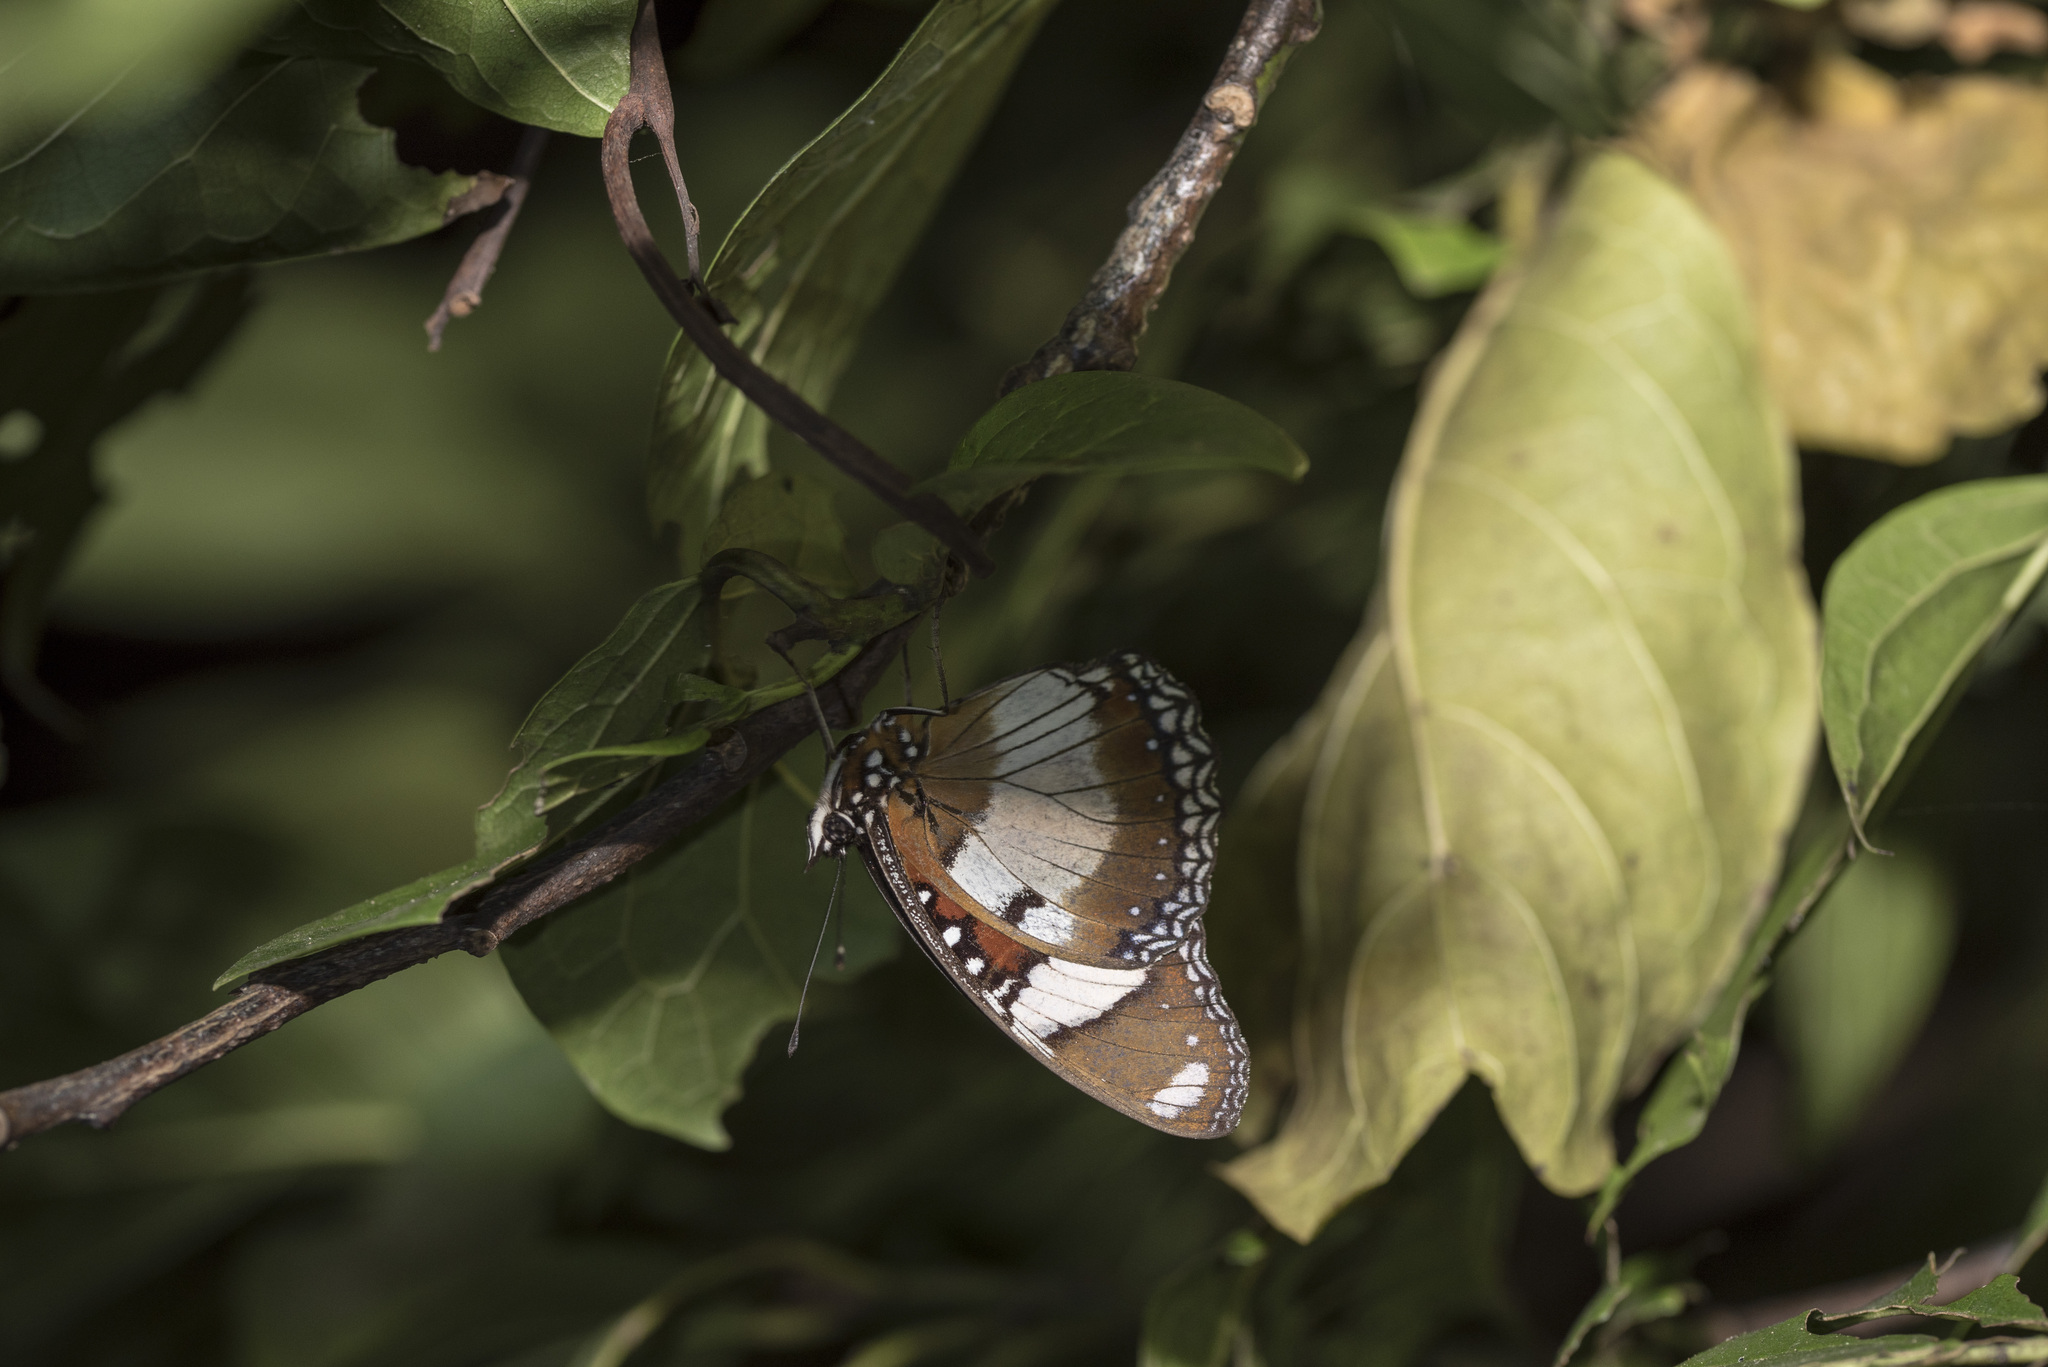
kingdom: Animalia
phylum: Arthropoda
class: Insecta
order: Lepidoptera
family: Nymphalidae
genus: Hypolimnas
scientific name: Hypolimnas misippus
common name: False plain tiger
